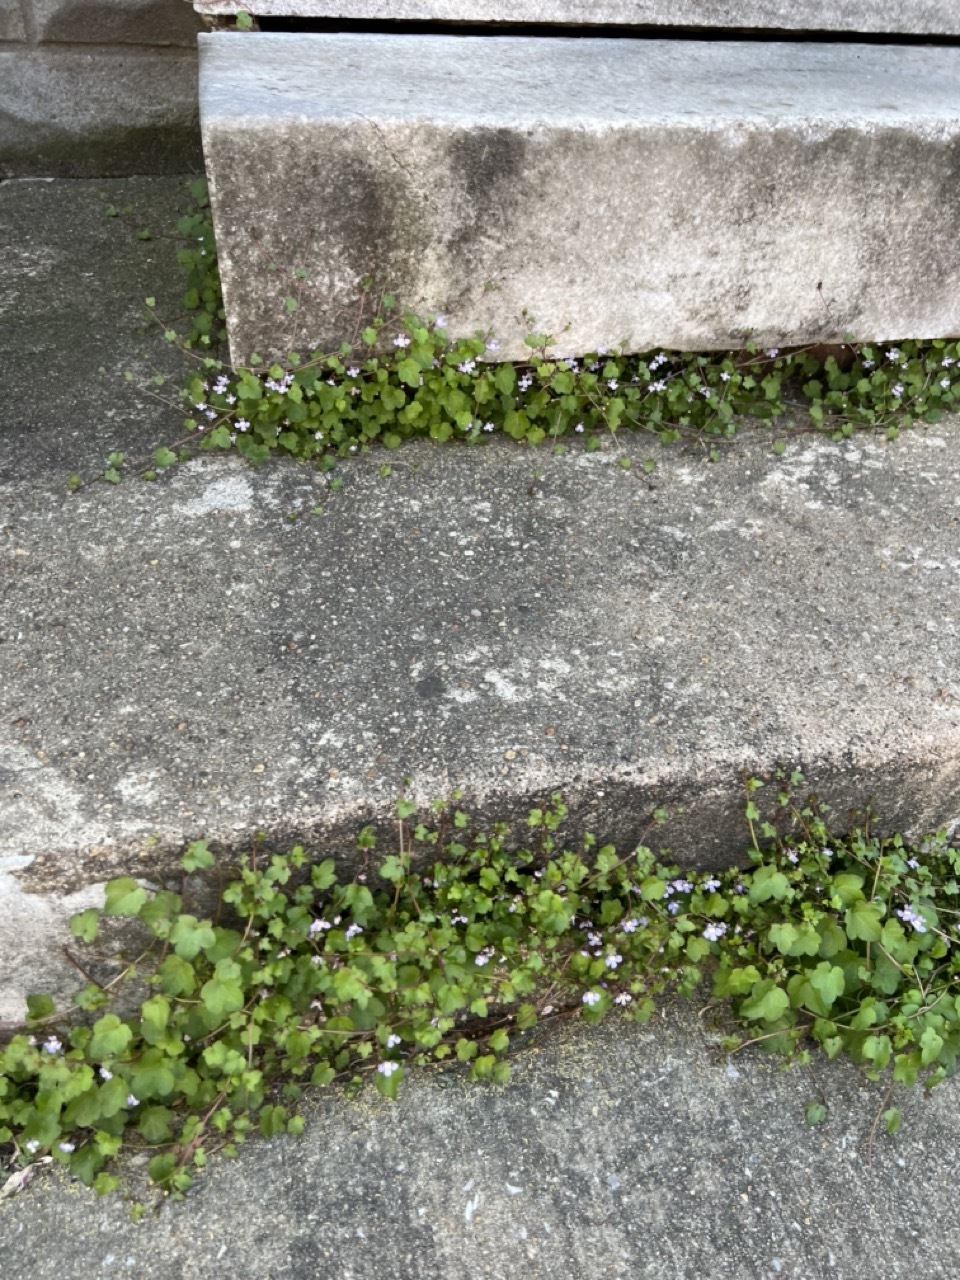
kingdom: Plantae
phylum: Tracheophyta
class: Magnoliopsida
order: Lamiales
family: Plantaginaceae
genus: Cymbalaria
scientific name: Cymbalaria muralis
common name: Ivy-leaved toadflax
